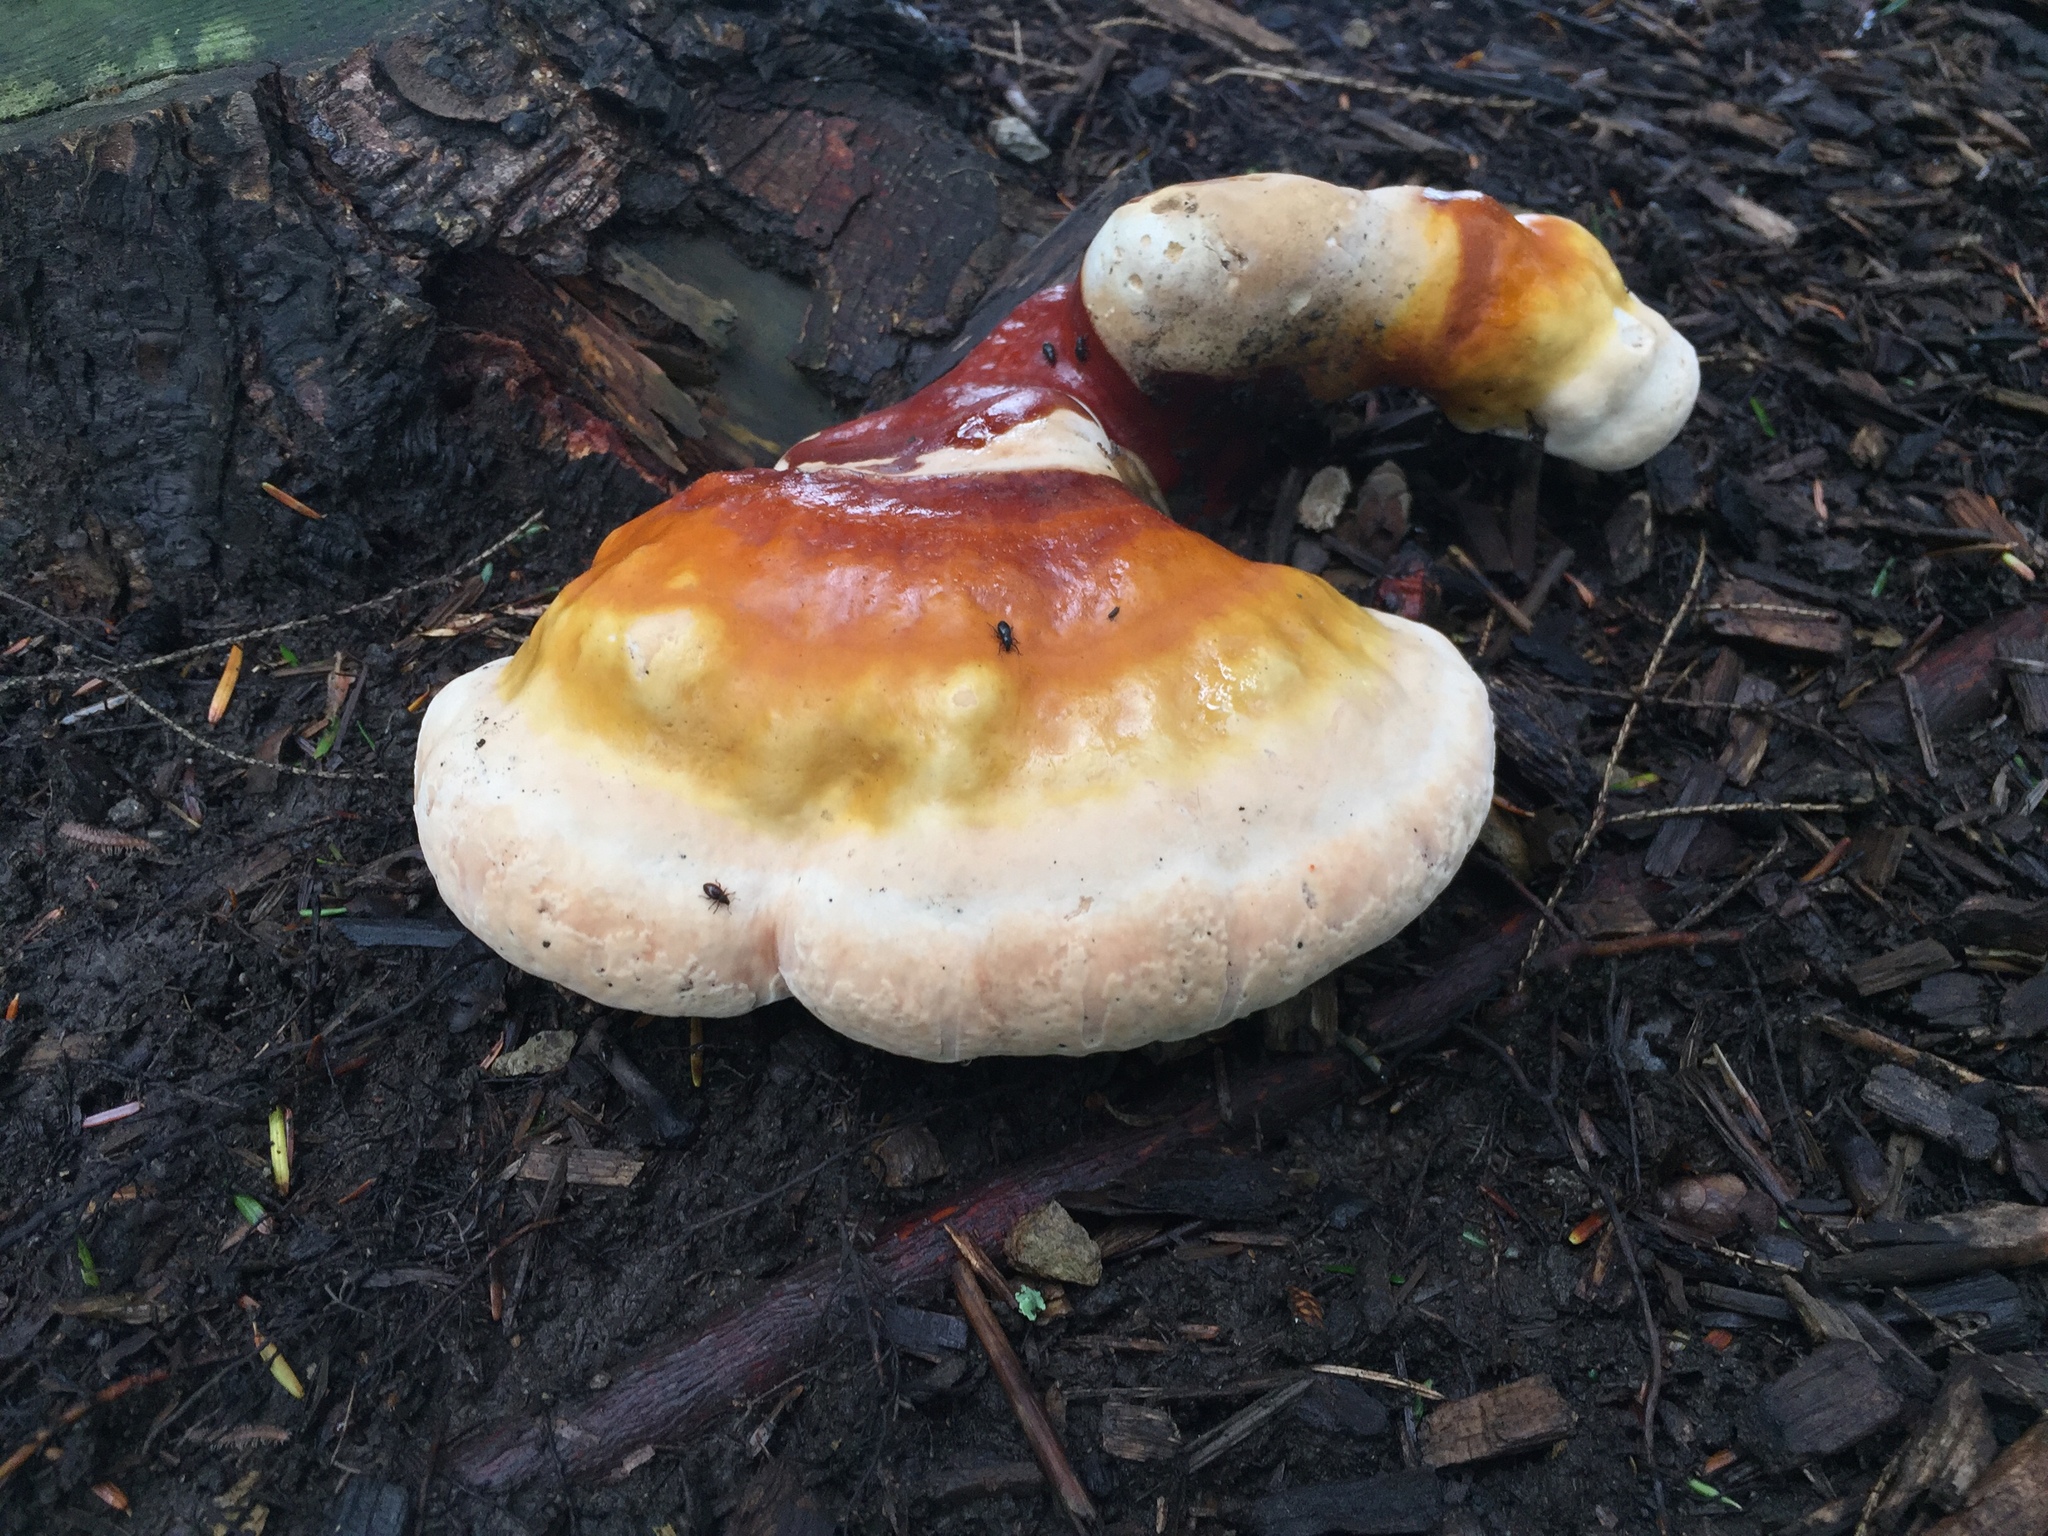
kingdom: Fungi
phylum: Basidiomycota
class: Agaricomycetes
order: Polyporales
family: Polyporaceae
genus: Ganoderma
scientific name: Ganoderma tsugae
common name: Hemlock varnish shelf
